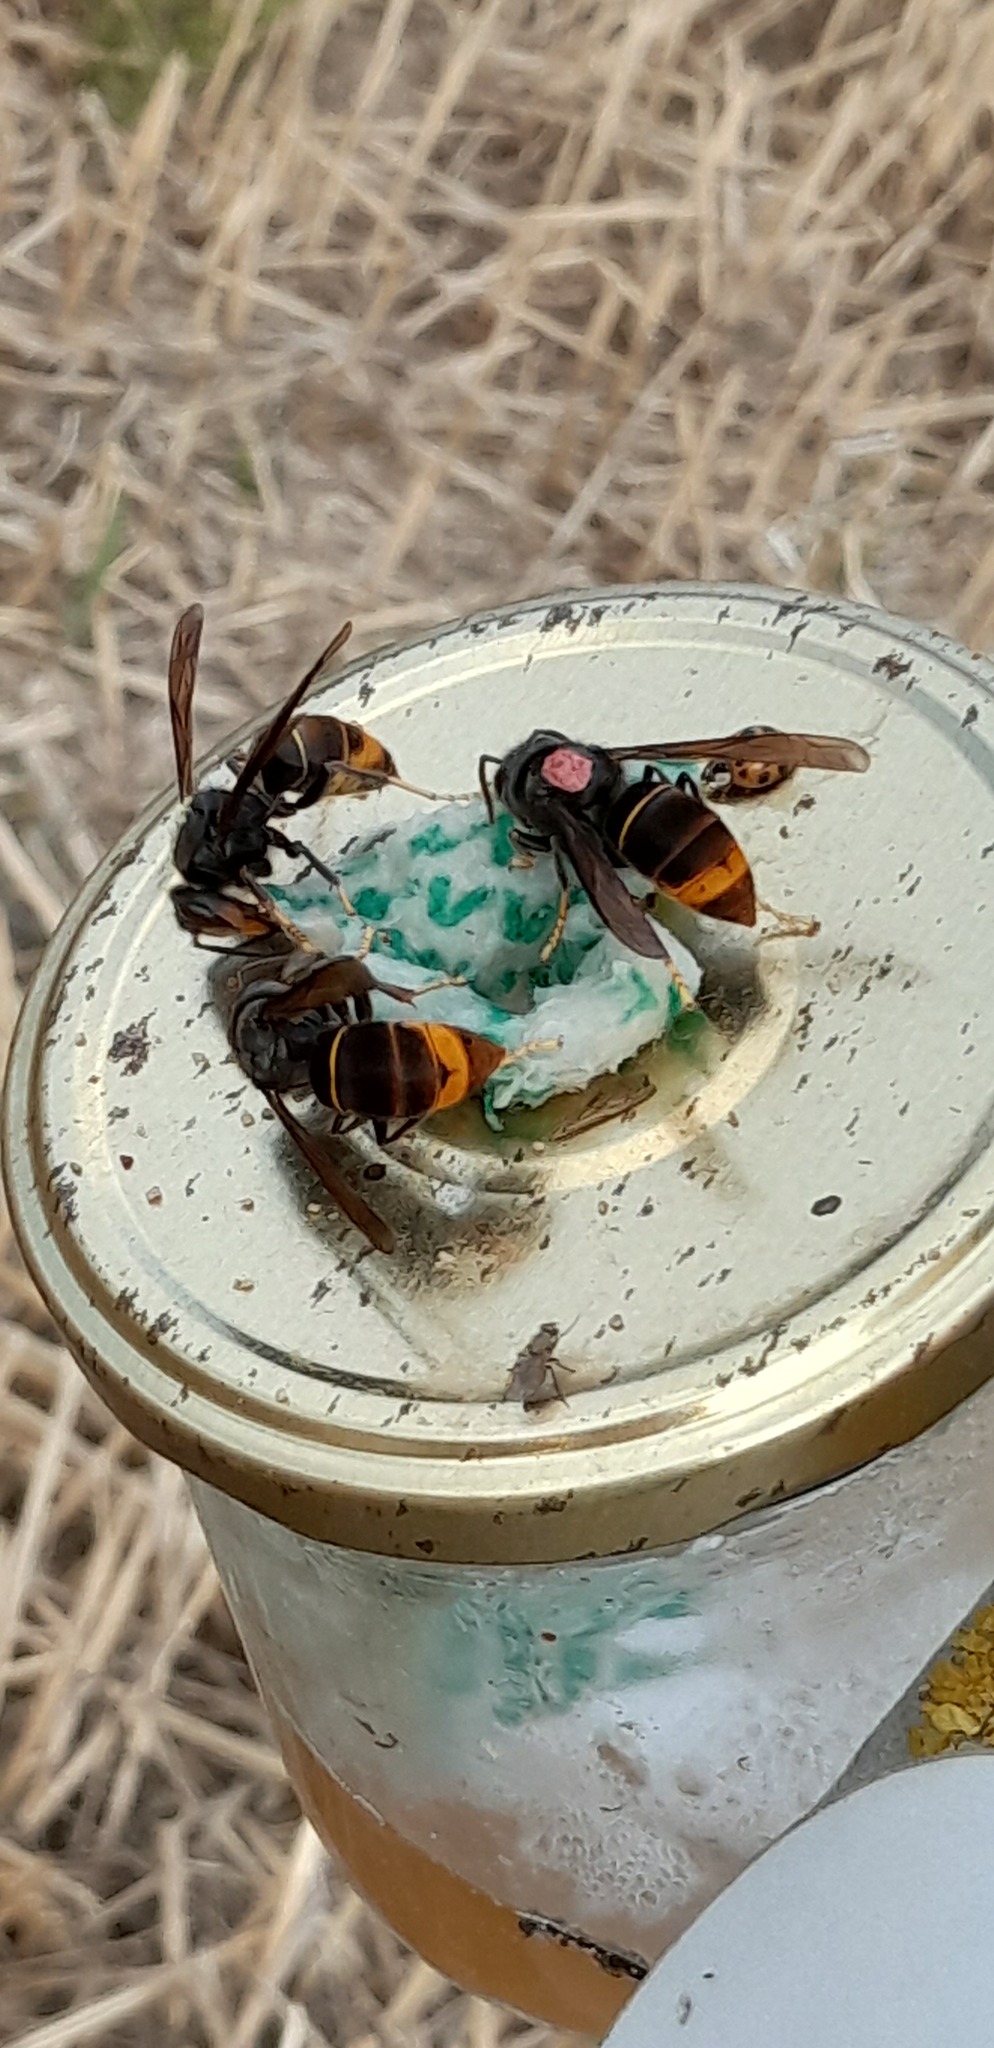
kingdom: Animalia
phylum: Arthropoda
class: Insecta
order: Hymenoptera
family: Vespidae
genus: Vespa
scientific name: Vespa velutina
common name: Asian hornet
